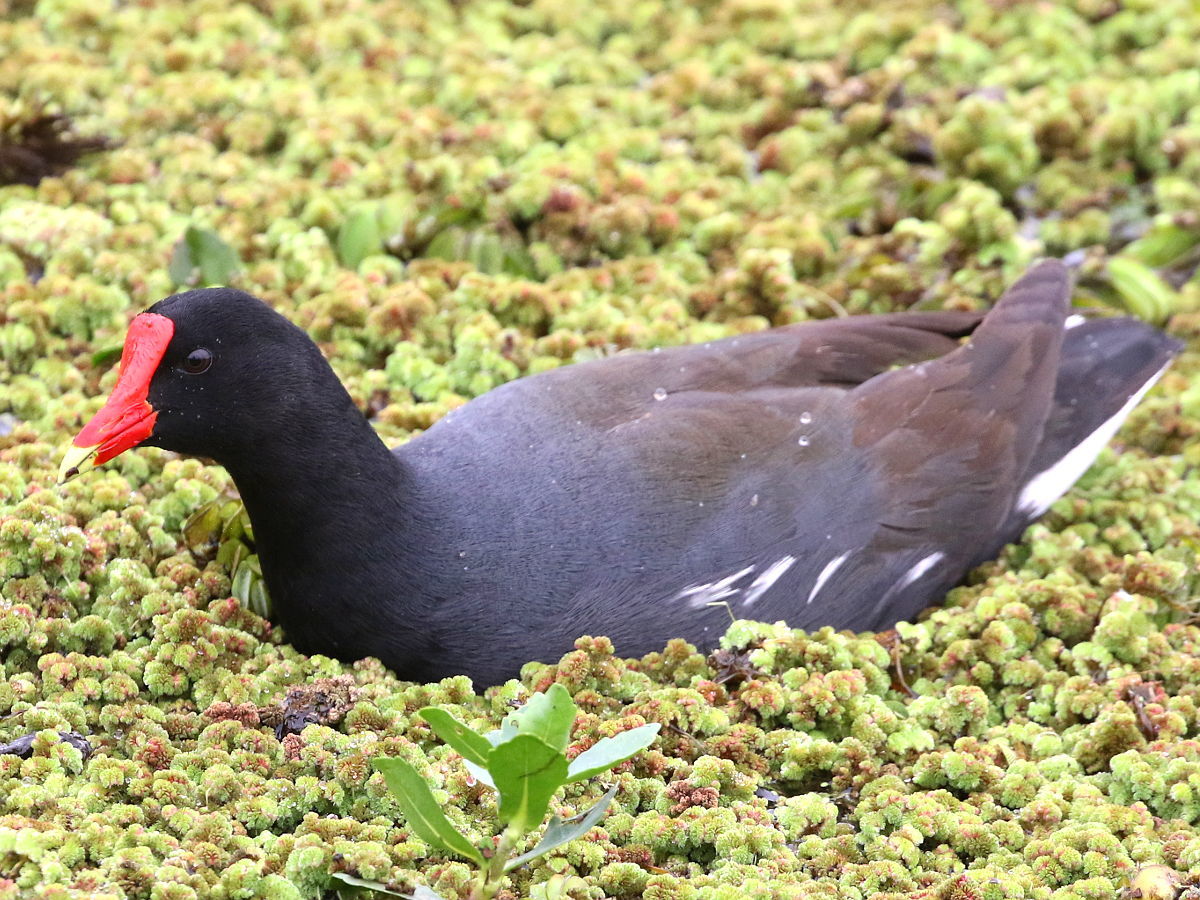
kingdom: Animalia
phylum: Chordata
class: Aves
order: Gruiformes
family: Rallidae
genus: Gallinula
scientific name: Gallinula chloropus
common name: Common moorhen
